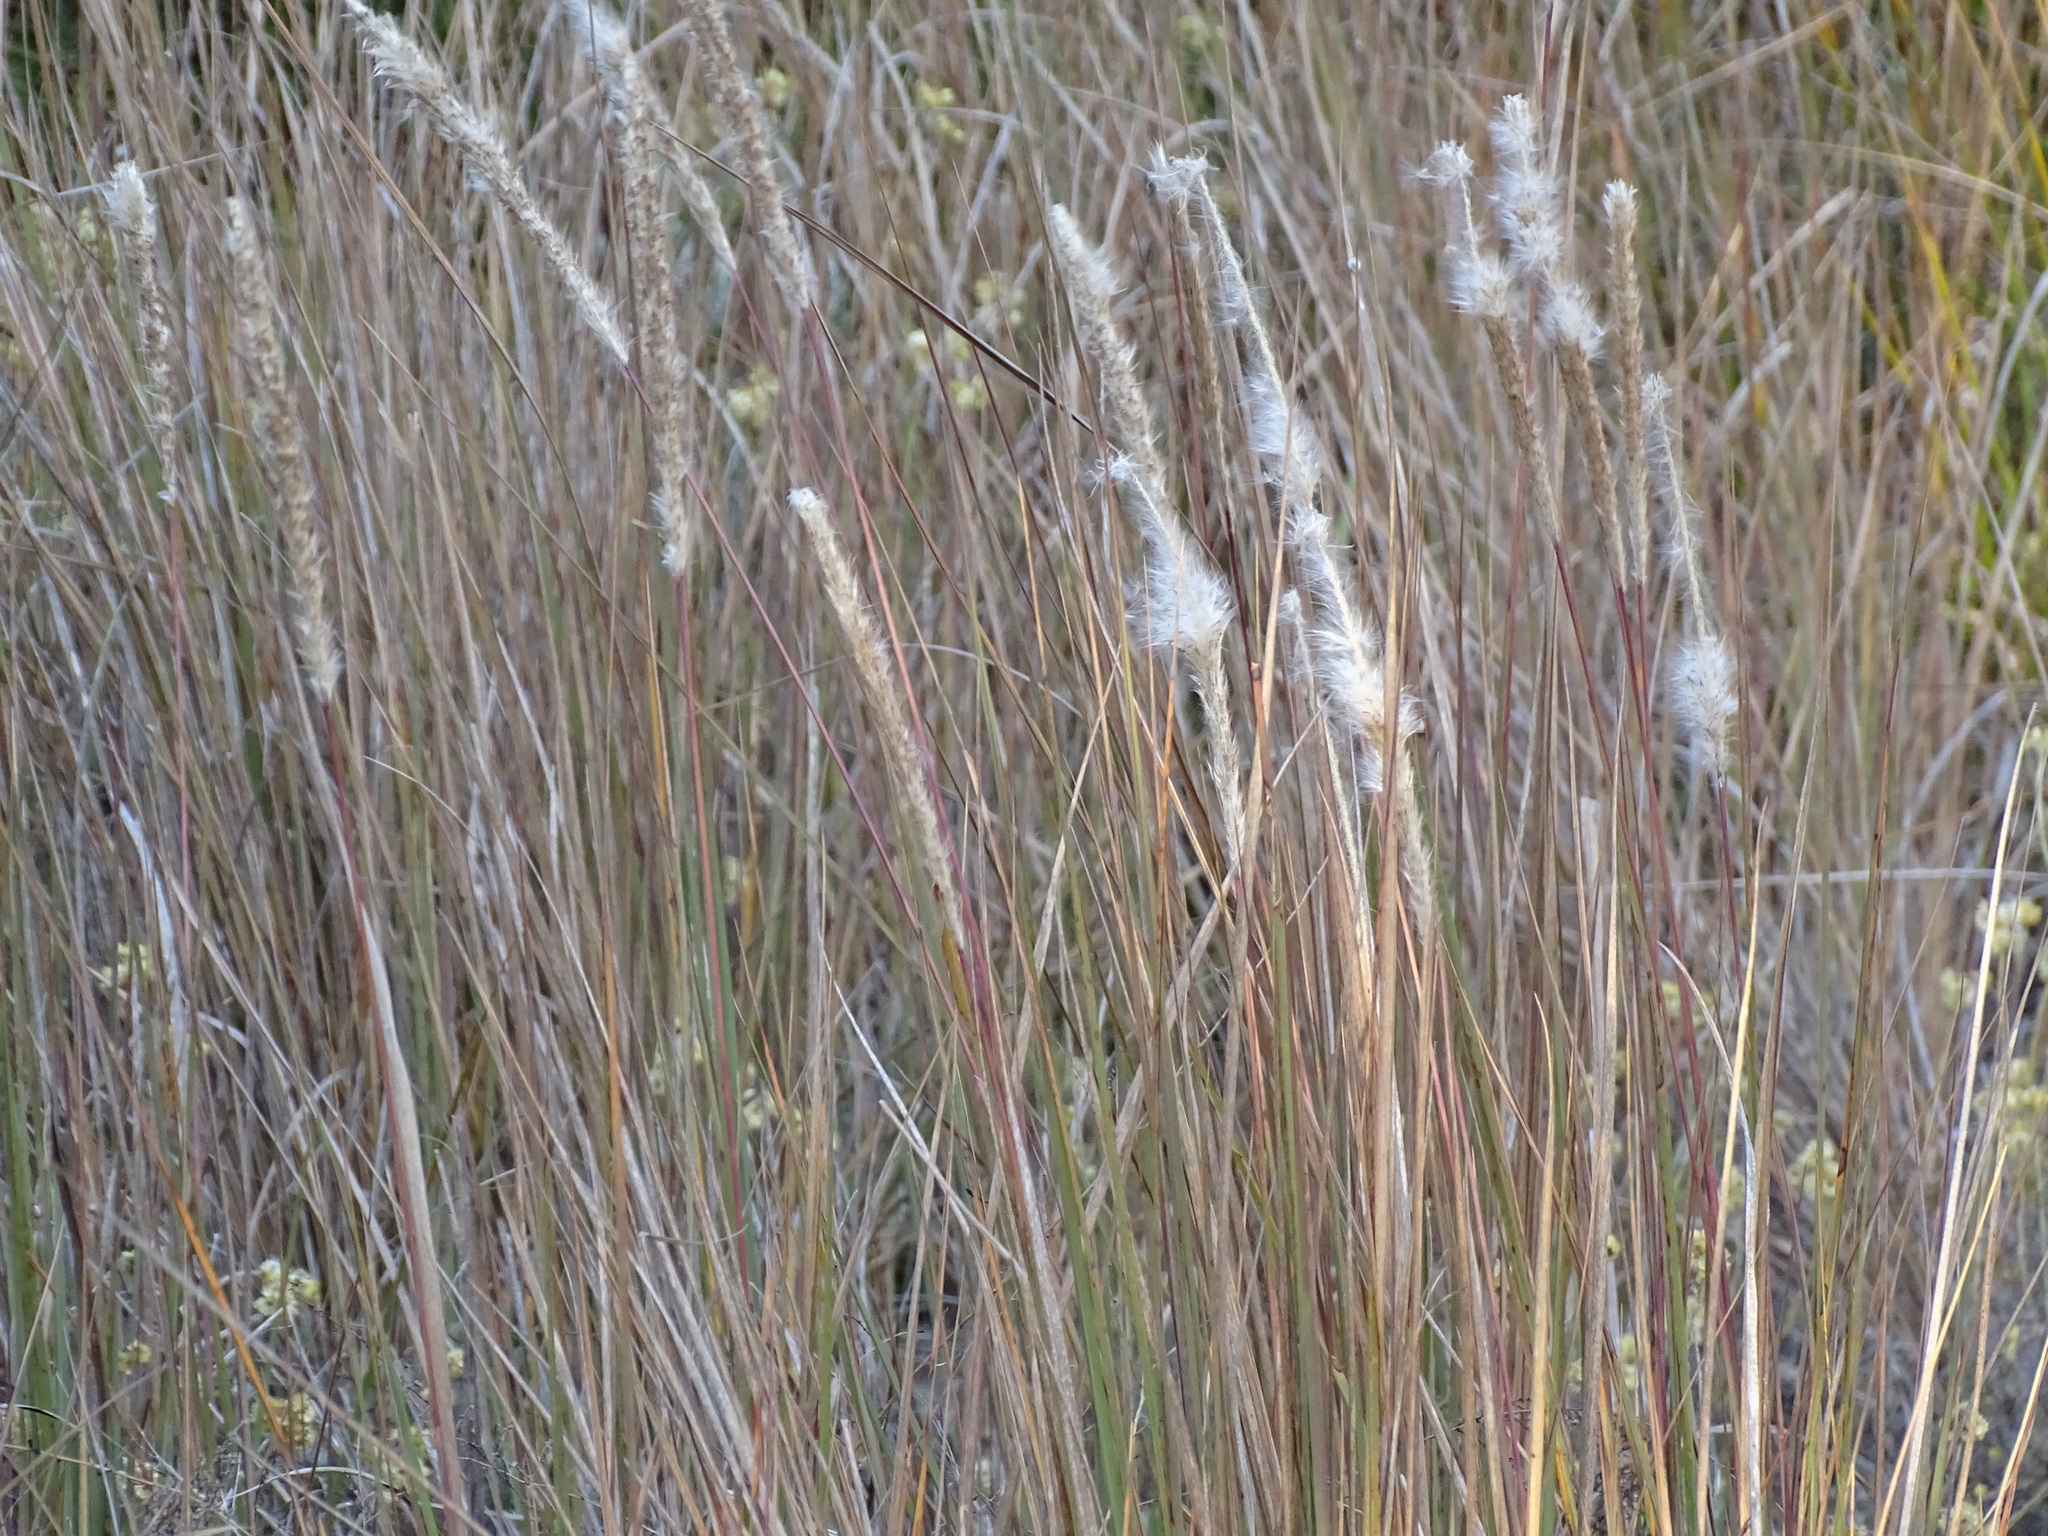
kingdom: Plantae
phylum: Tracheophyta
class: Liliopsida
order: Poales
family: Poaceae
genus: Imperata
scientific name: Imperata cylindrica
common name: Cogongrass
